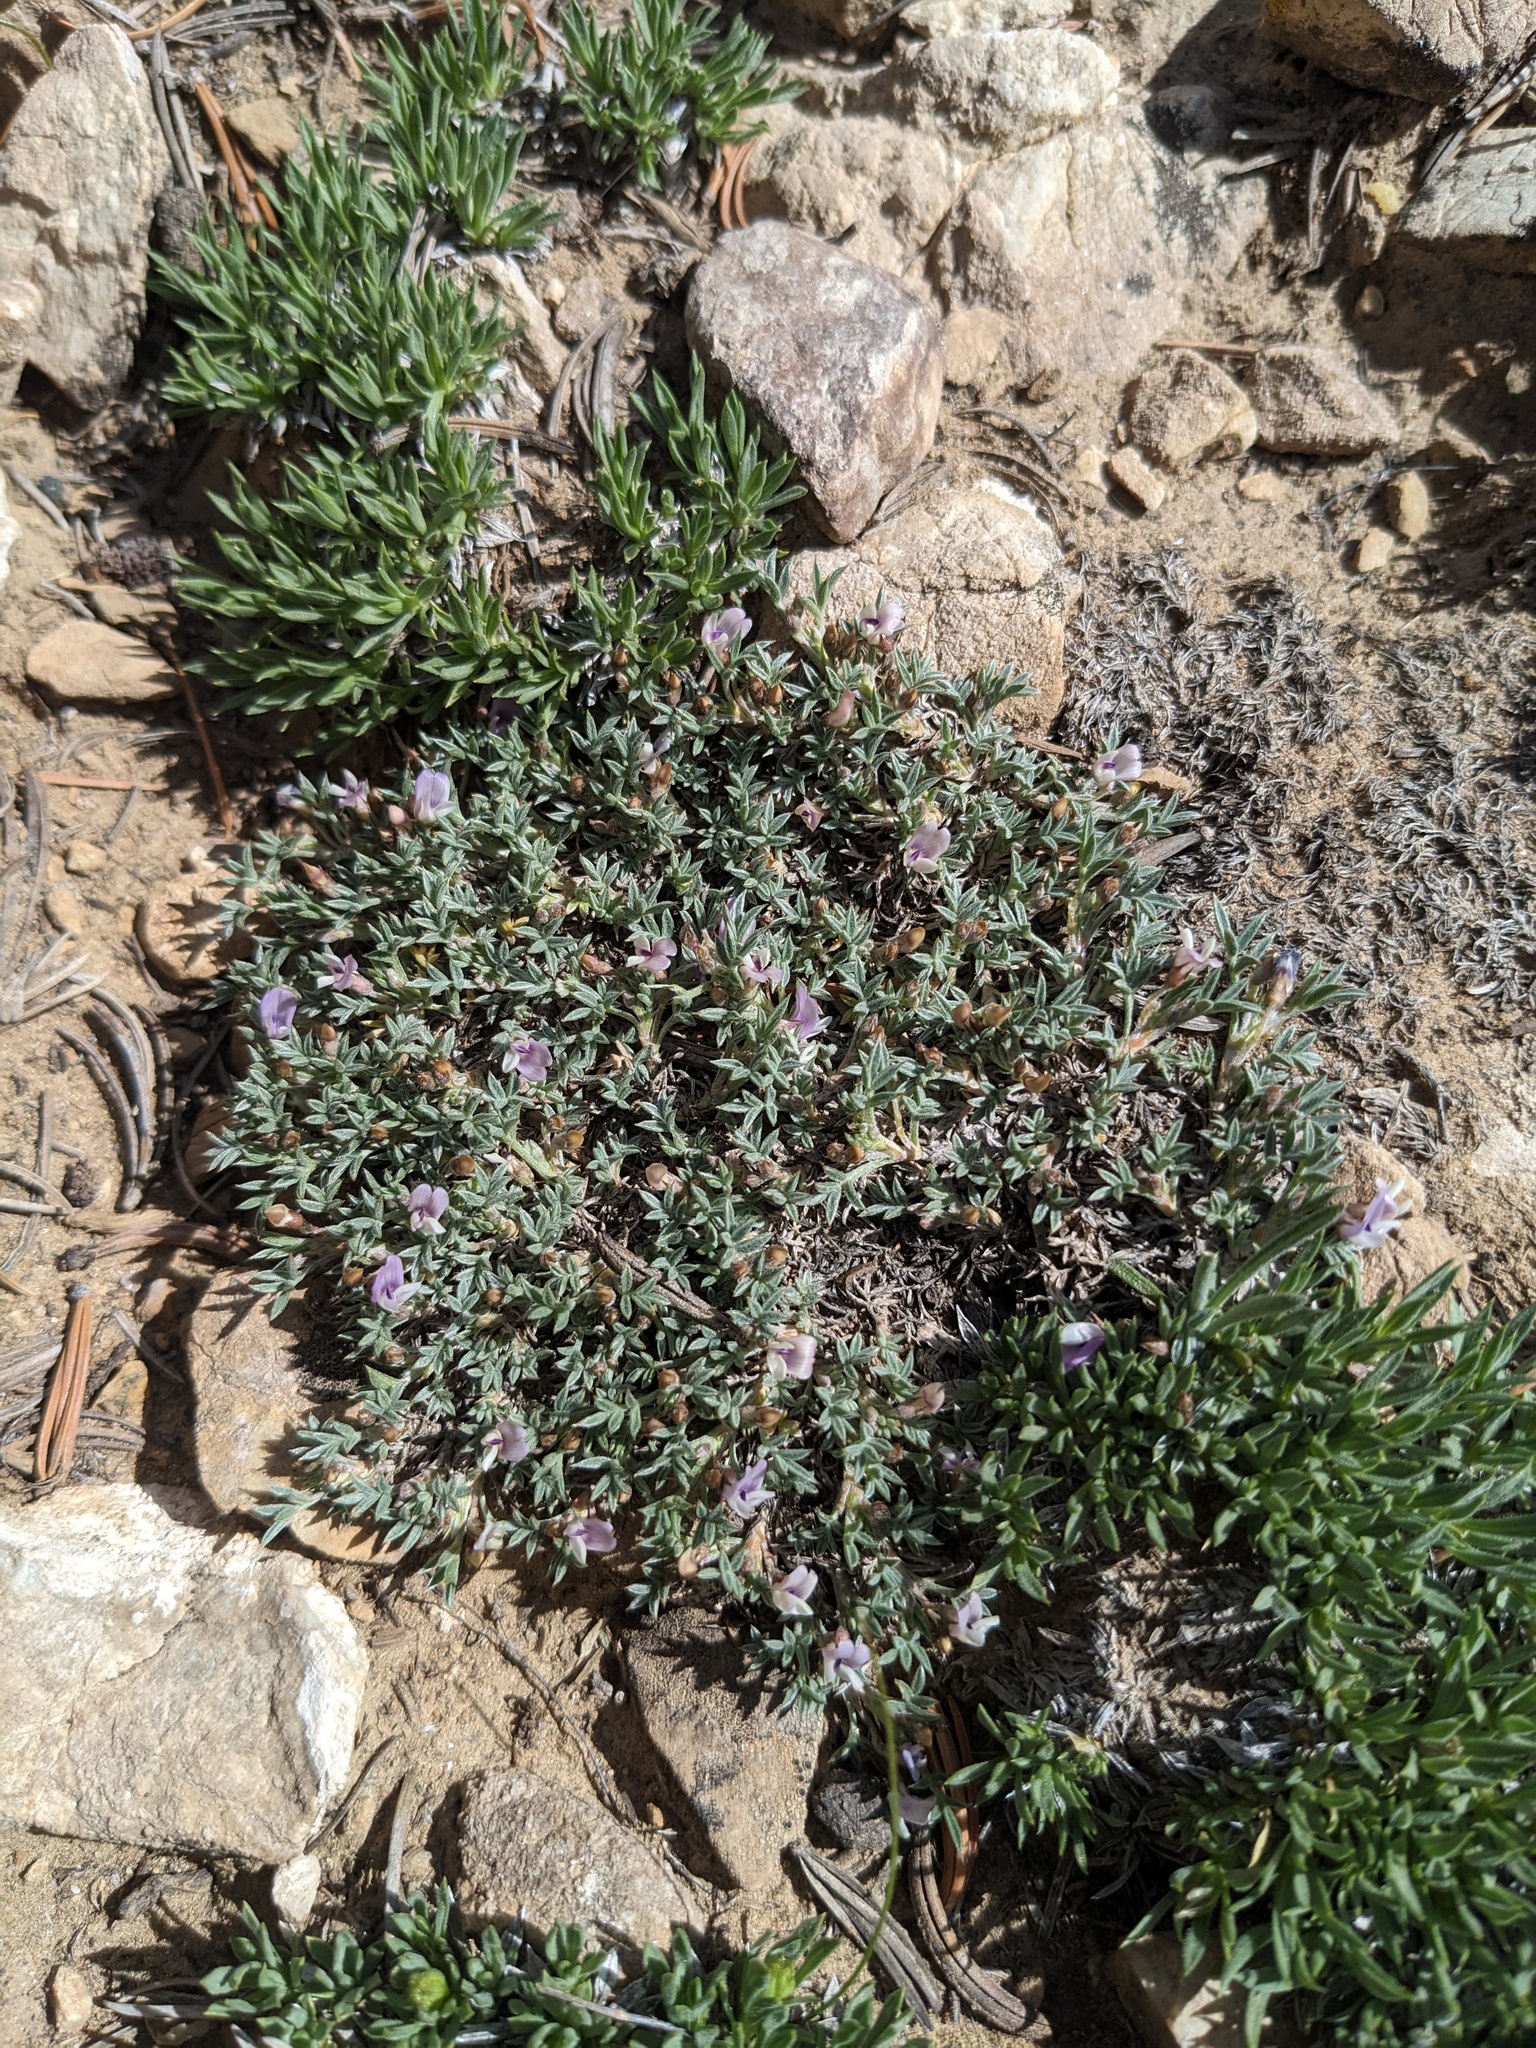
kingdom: Plantae
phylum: Tracheophyta
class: Magnoliopsida
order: Fabales
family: Fabaceae
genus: Astragalus
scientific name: Astragalus kentrophyta
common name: Prickly milk-vetch
